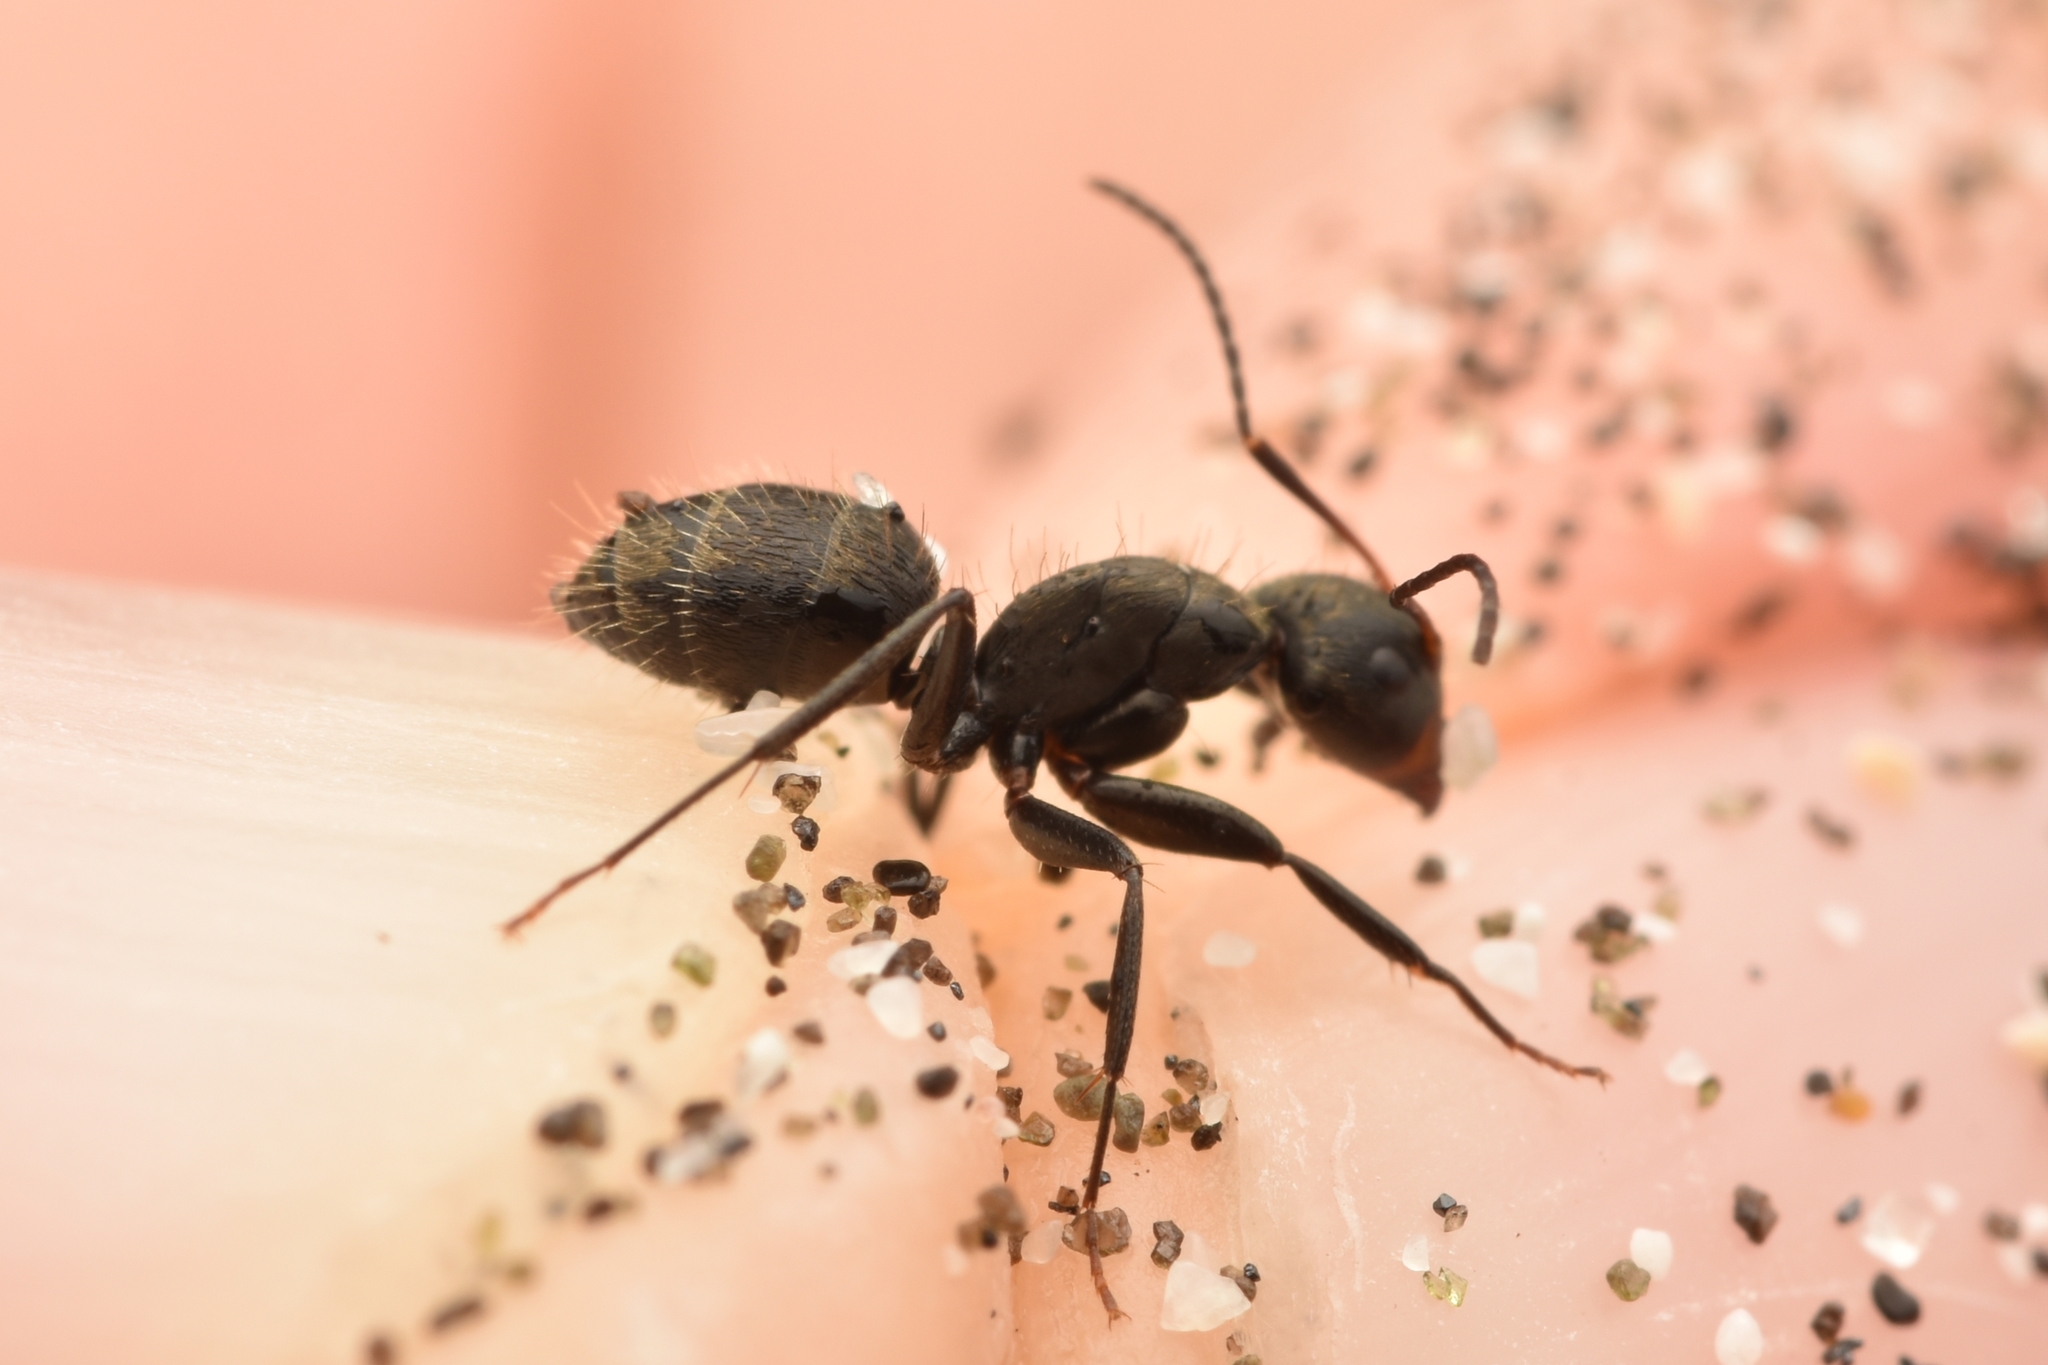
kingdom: Animalia
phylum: Arthropoda
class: Insecta
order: Hymenoptera
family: Formicidae
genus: Camponotus
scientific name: Camponotus novogranadensis
